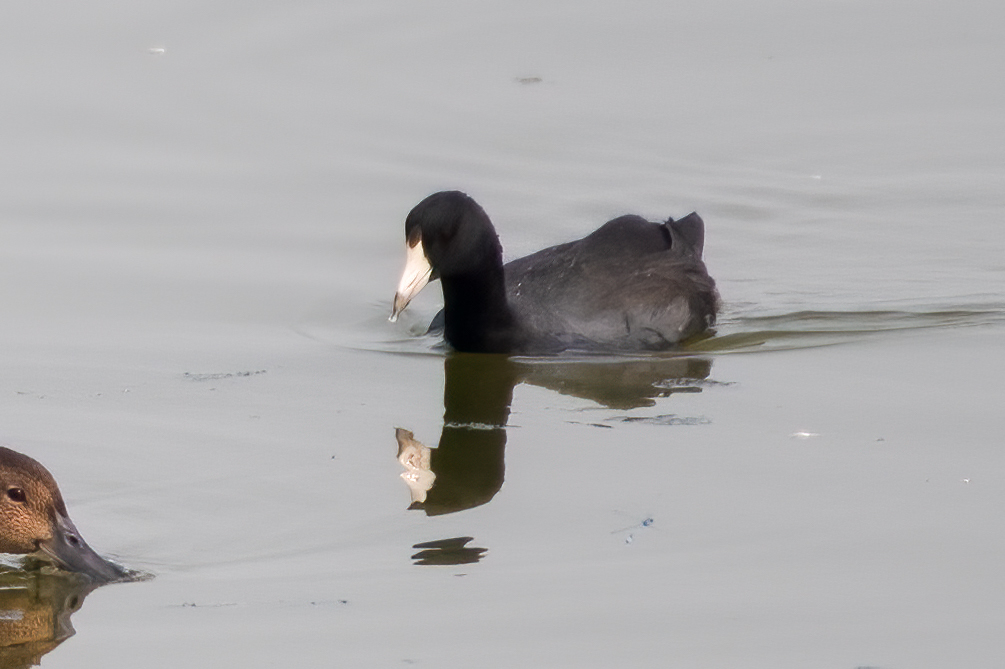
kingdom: Animalia
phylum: Chordata
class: Aves
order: Gruiformes
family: Rallidae
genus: Fulica
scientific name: Fulica americana
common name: American coot
